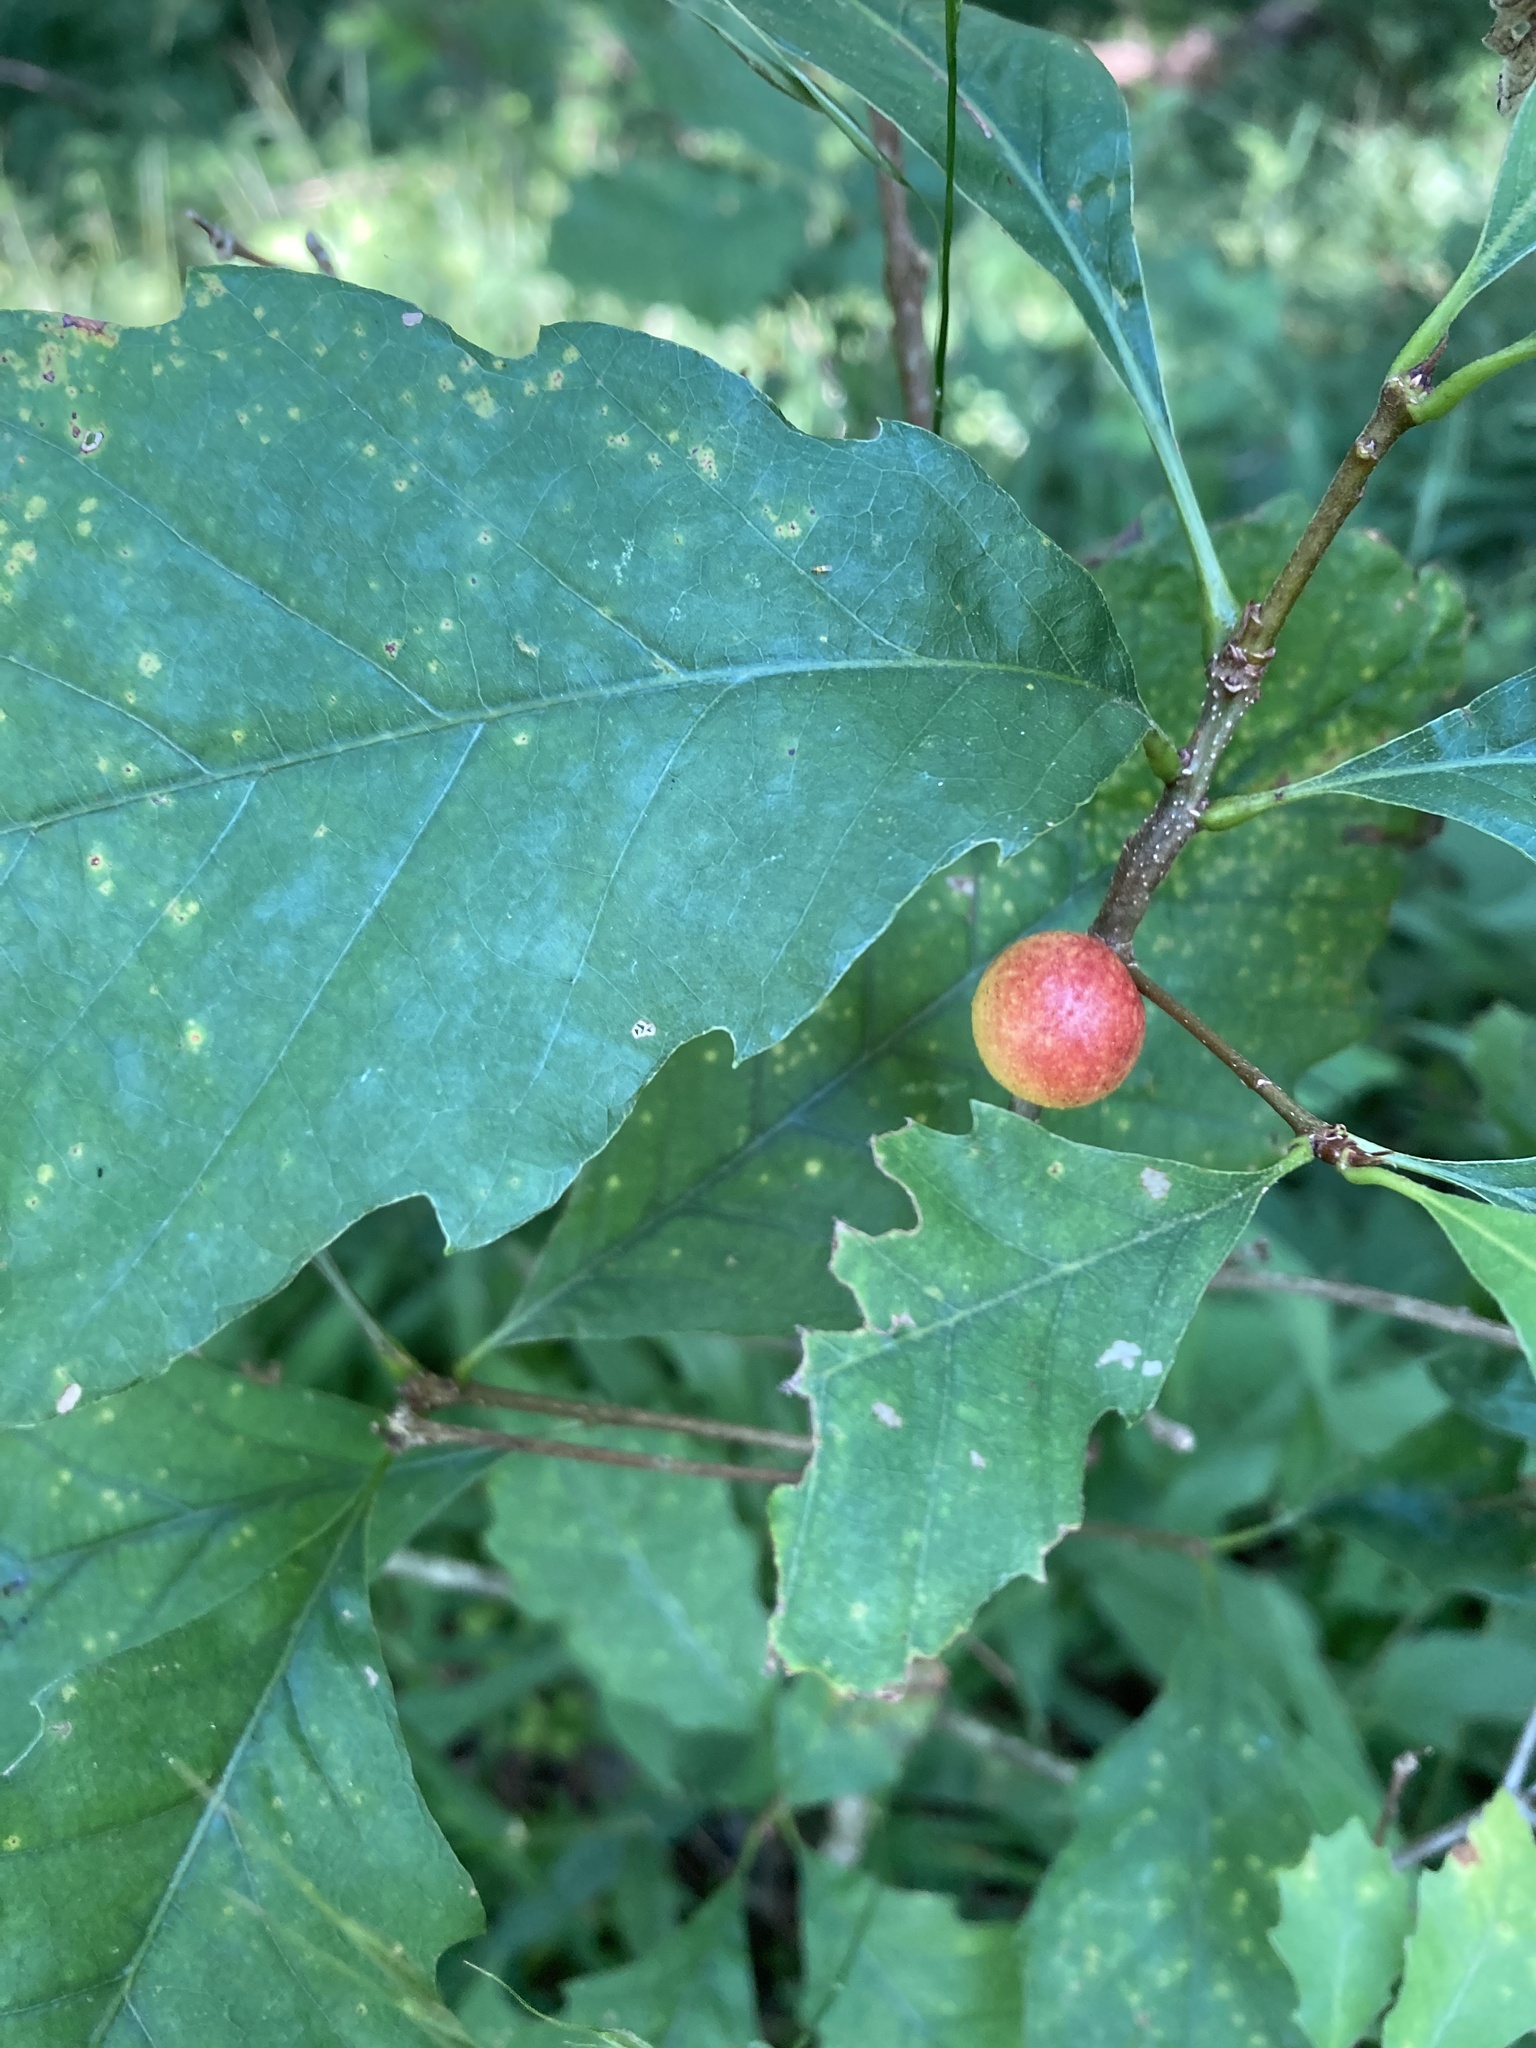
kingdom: Animalia
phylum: Arthropoda
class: Insecta
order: Hymenoptera
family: Cynipidae
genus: Disholcaspis
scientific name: Disholcaspis quercusglobulus
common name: Round bullet gall wasp
